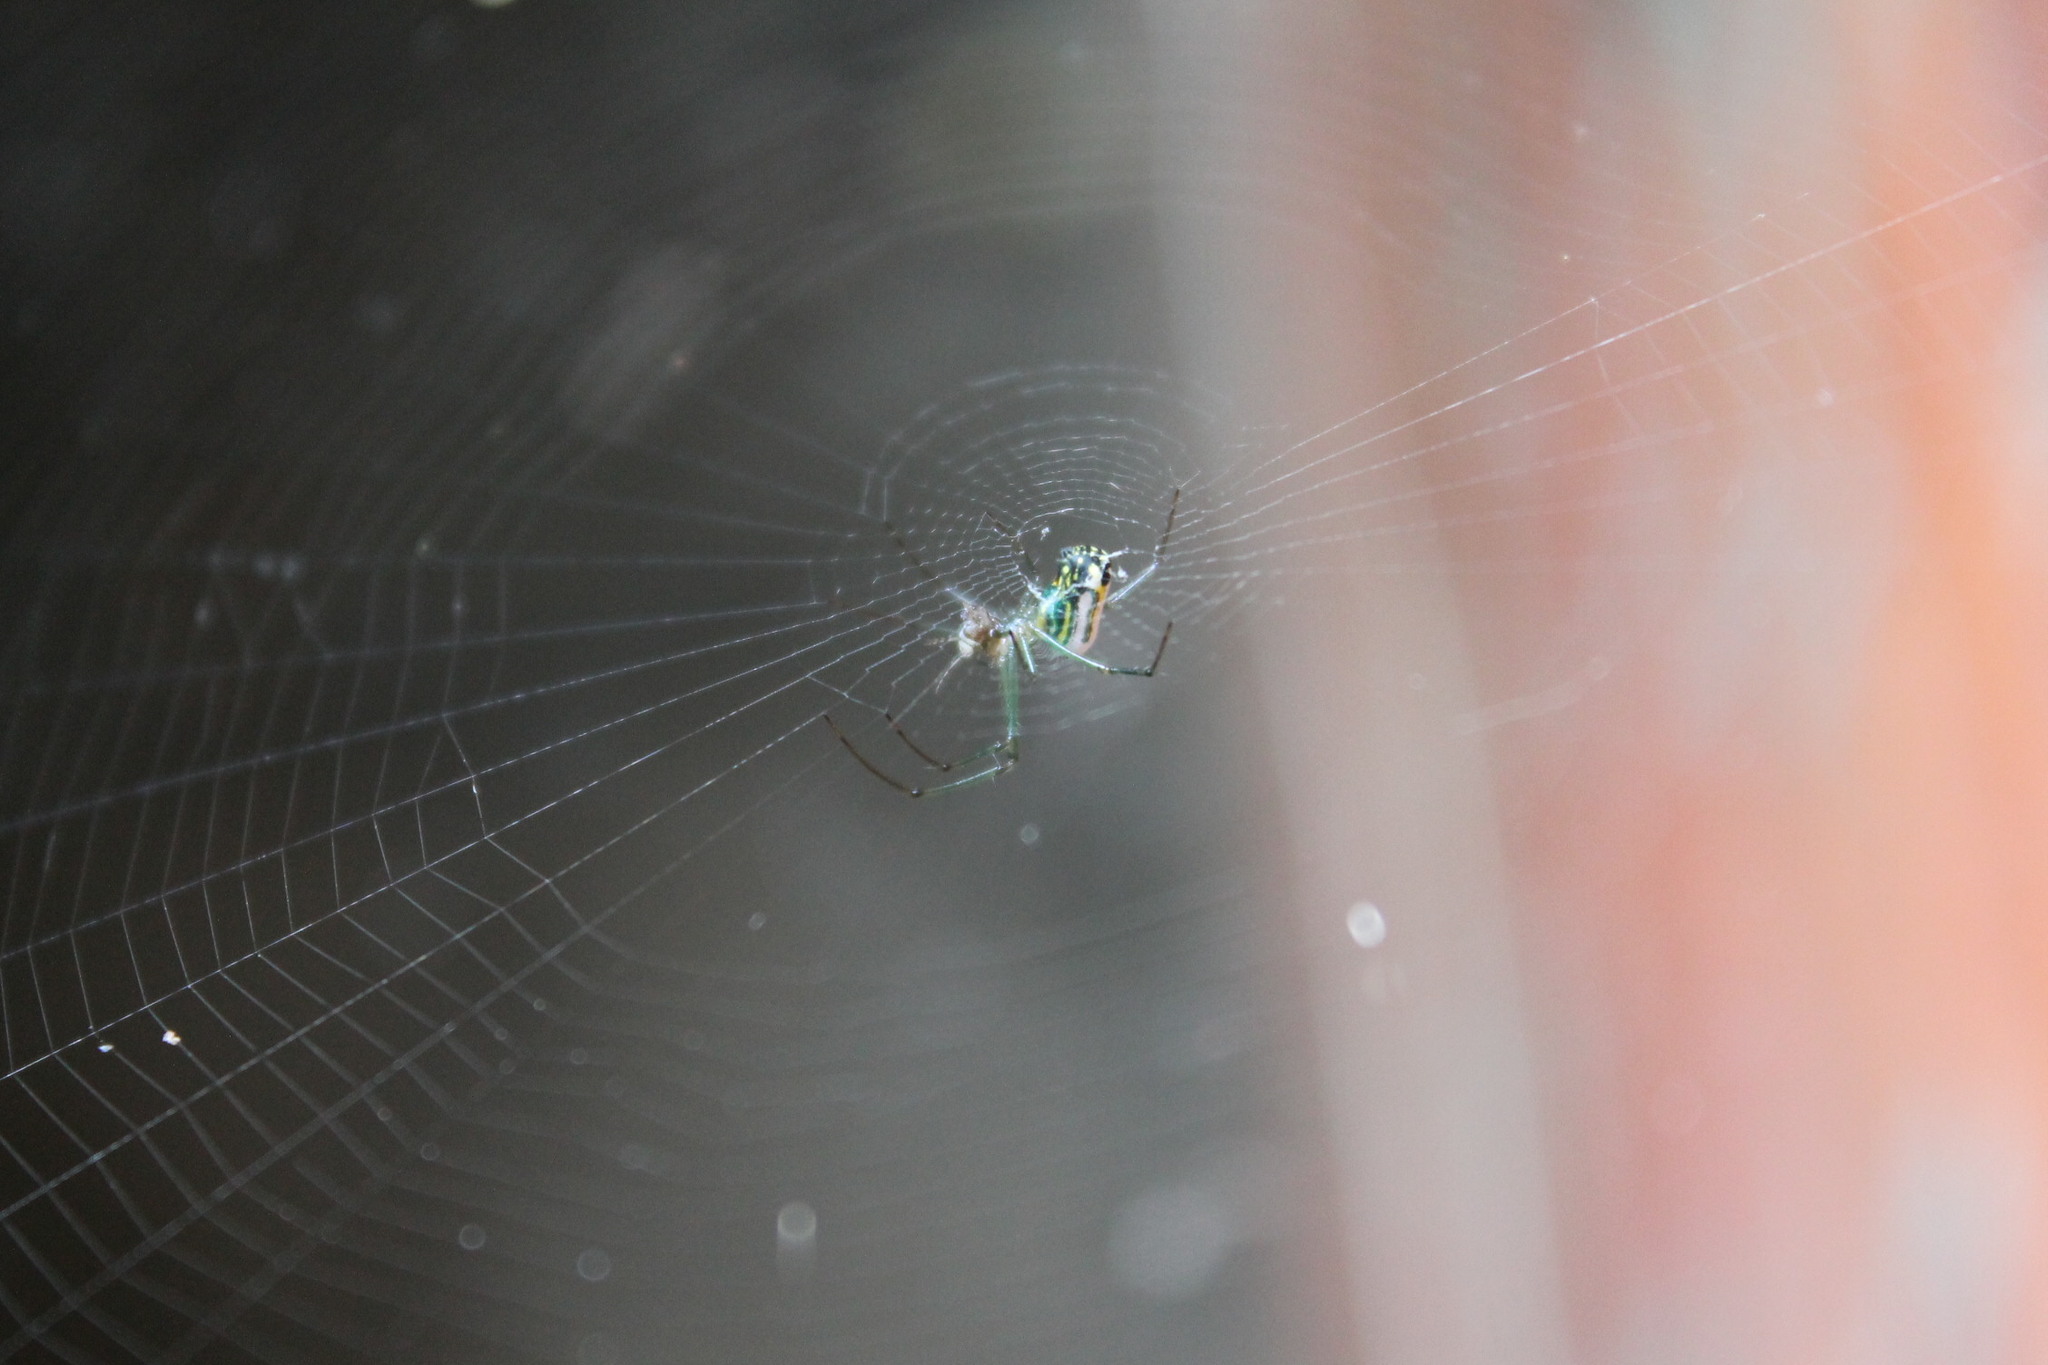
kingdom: Animalia
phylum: Arthropoda
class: Arachnida
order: Araneae
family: Tetragnathidae
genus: Leucauge
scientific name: Leucauge venusta
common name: Longjawed orb weavers
